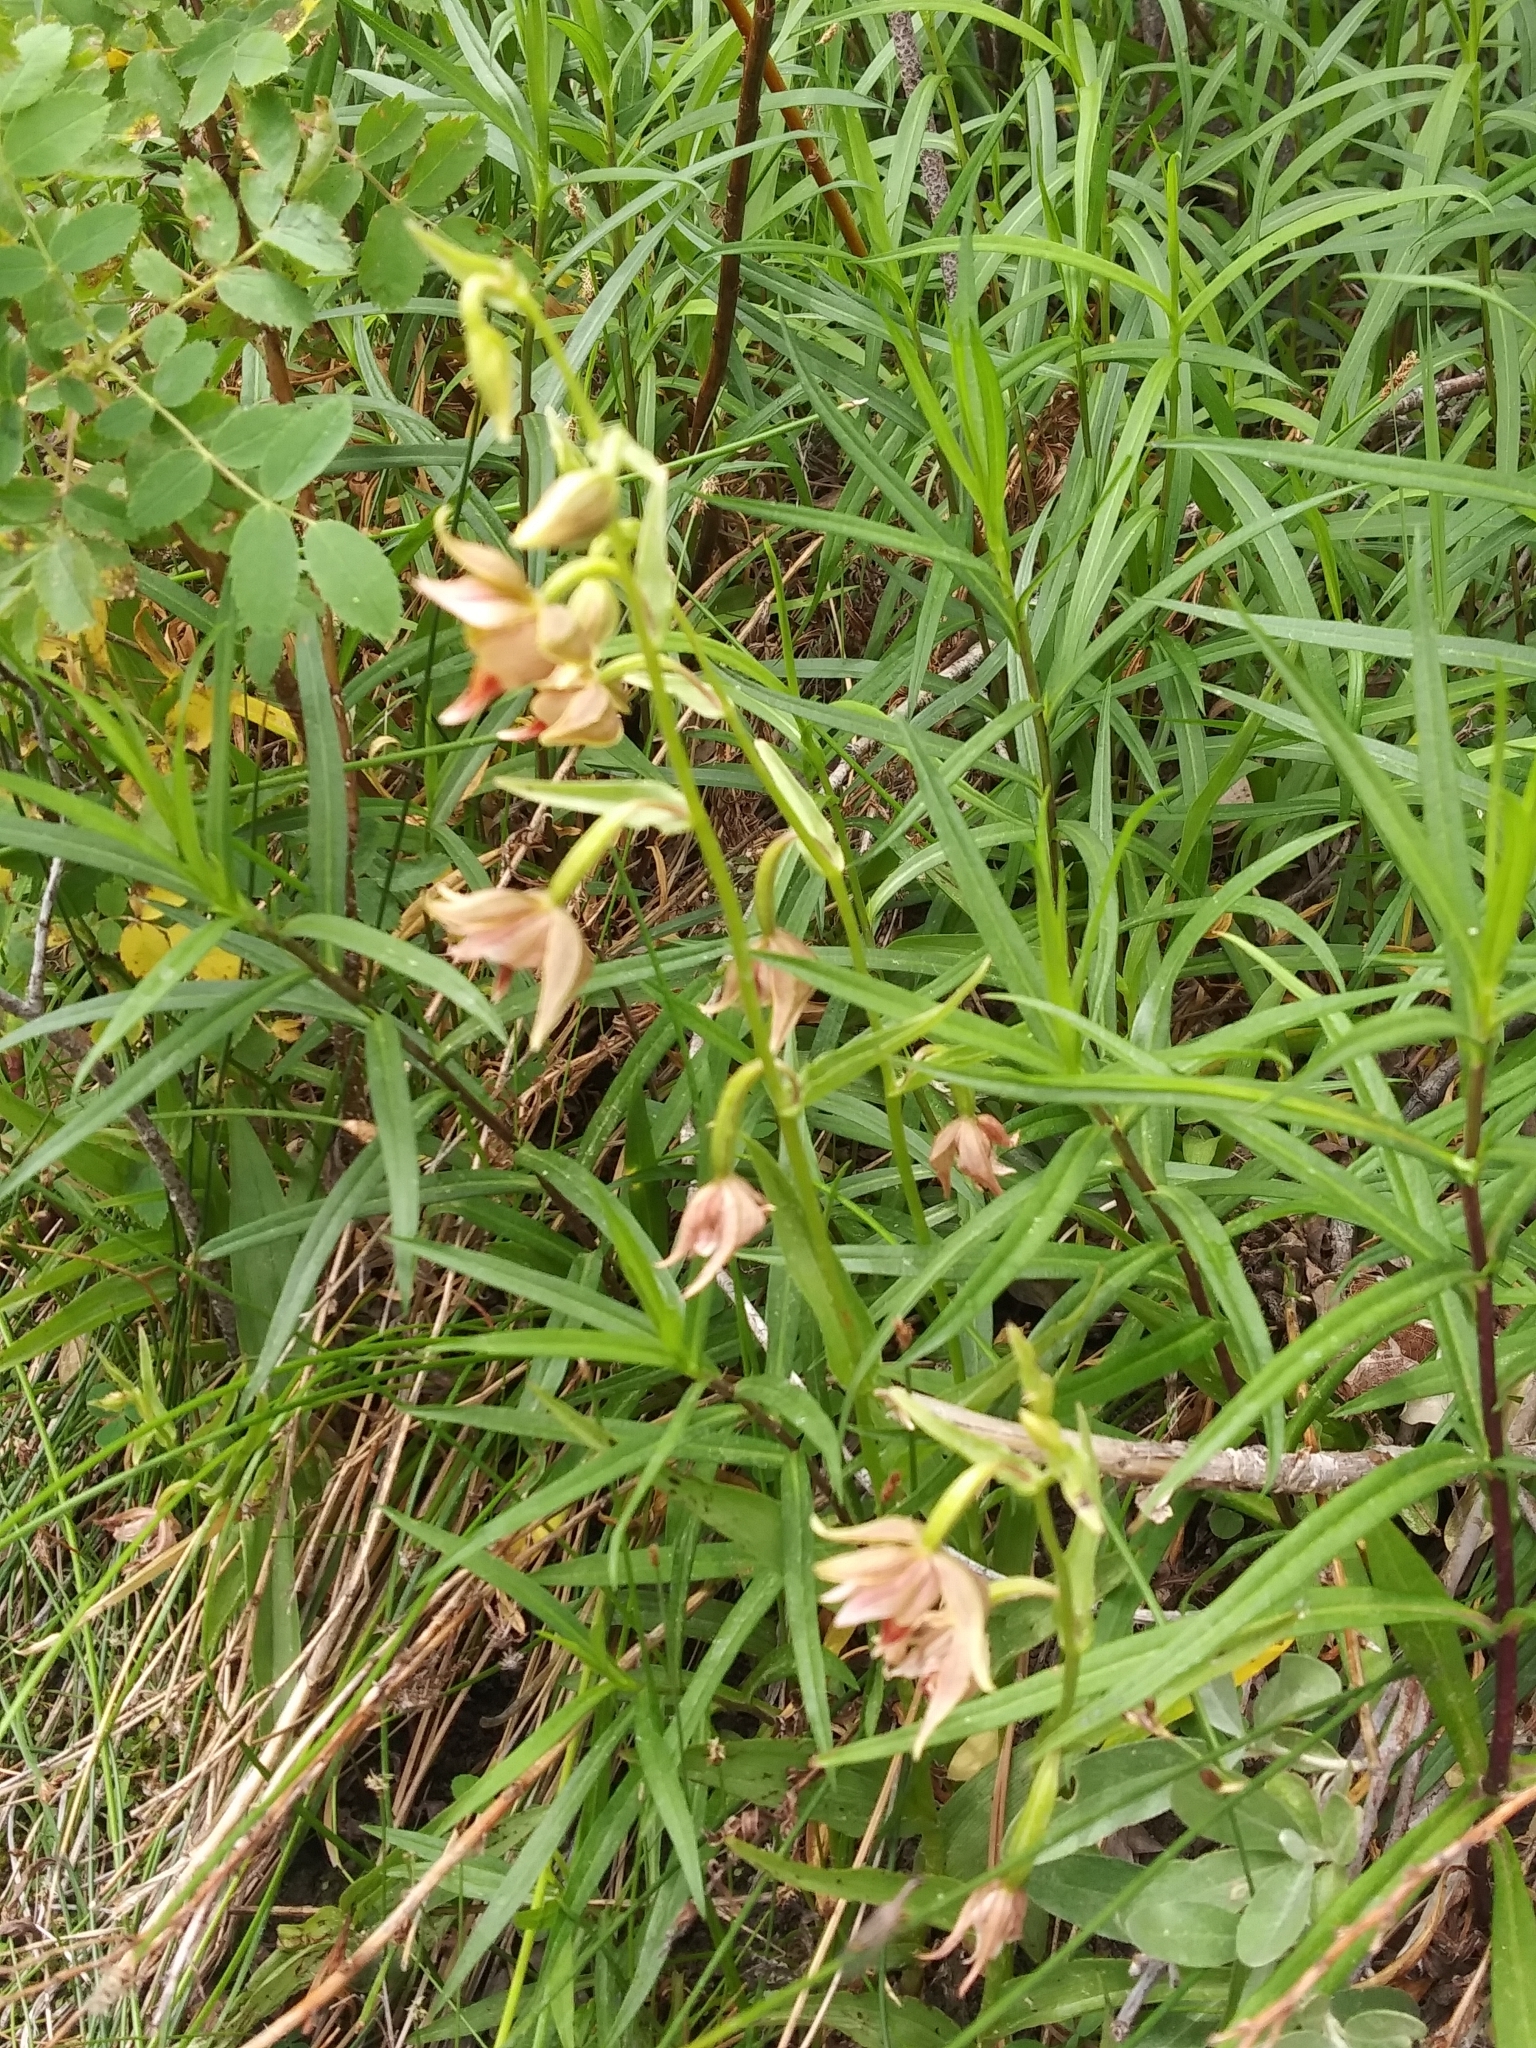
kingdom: Plantae
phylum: Tracheophyta
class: Liliopsida
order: Asparagales
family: Orchidaceae
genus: Epipactis
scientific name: Epipactis gigantea
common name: Chatterbox
